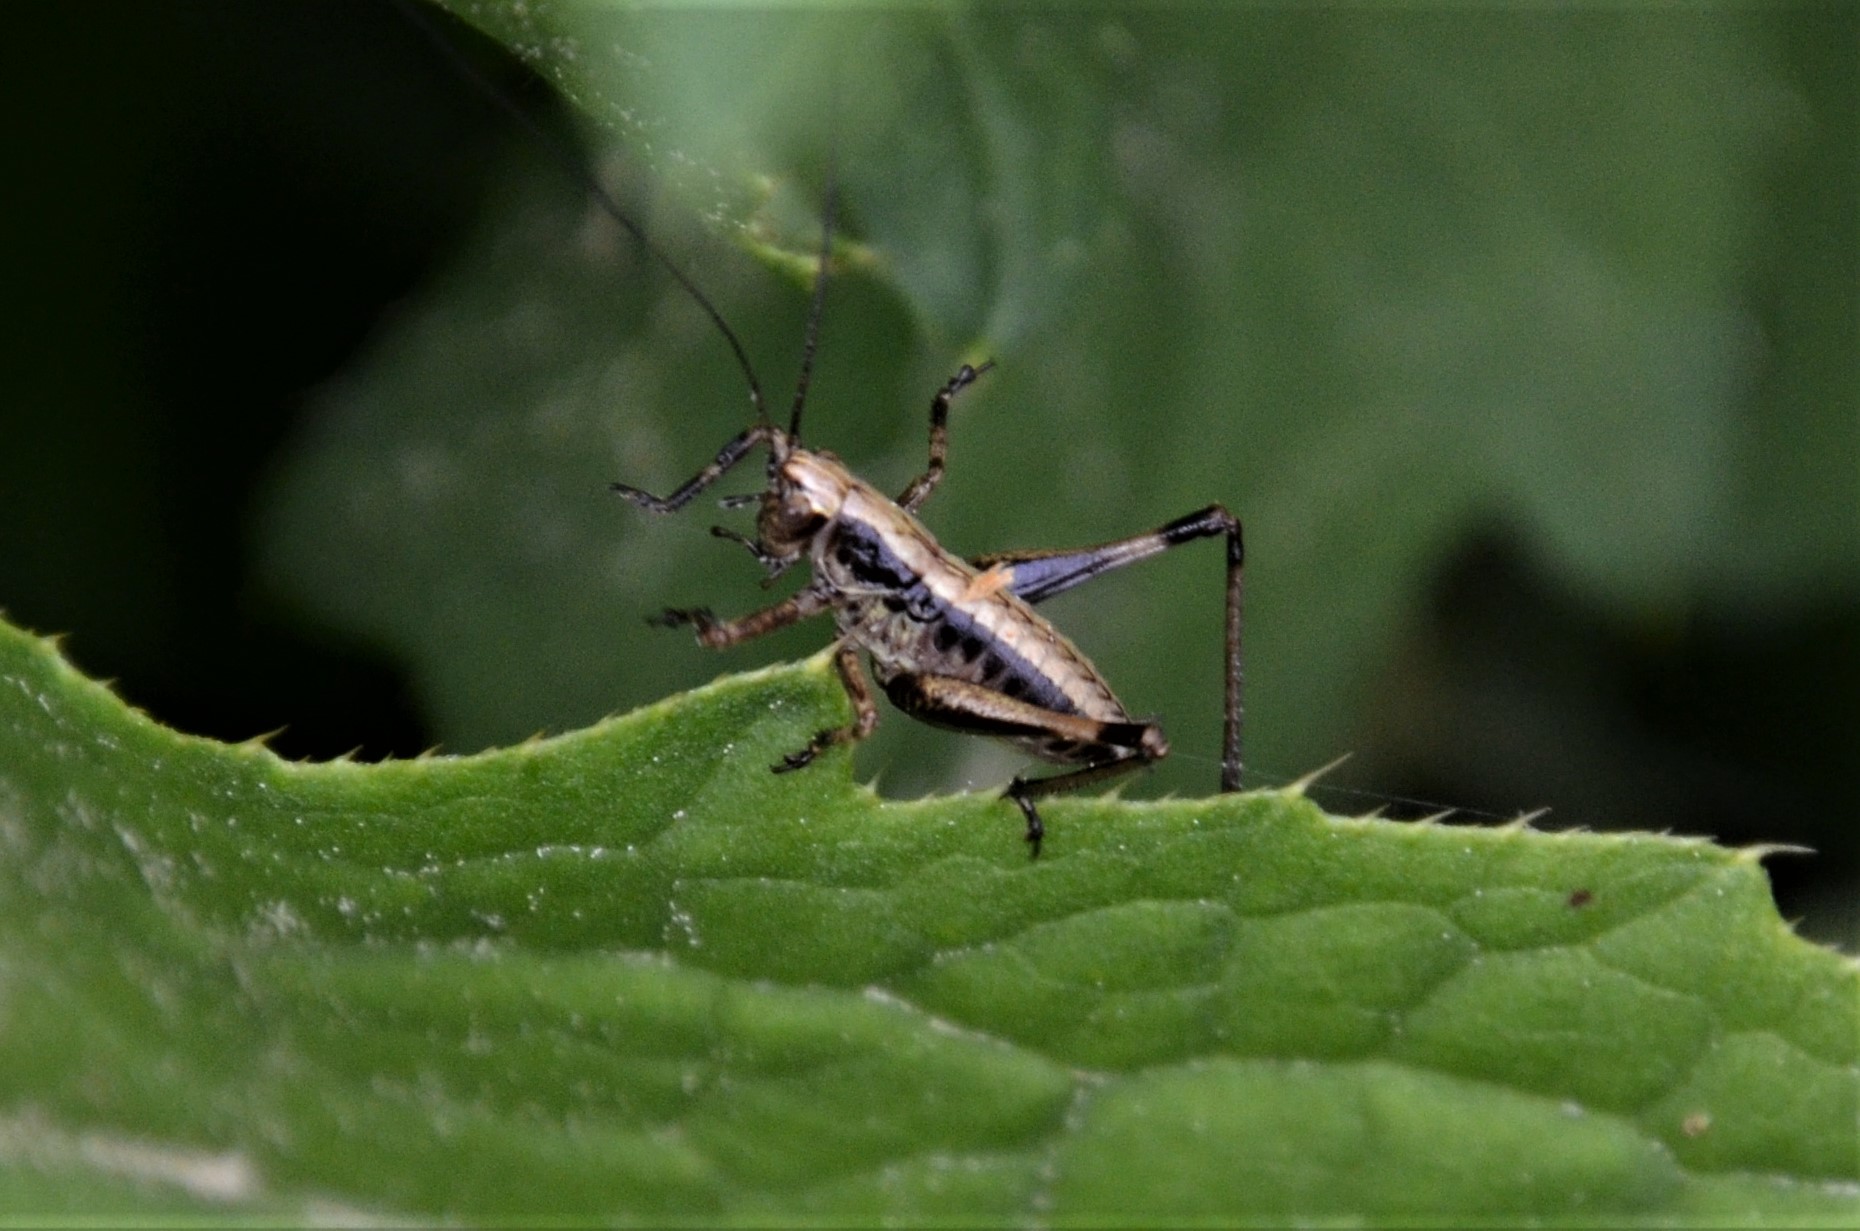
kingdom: Animalia
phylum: Arthropoda
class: Insecta
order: Orthoptera
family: Tettigoniidae
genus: Pholidoptera
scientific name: Pholidoptera griseoaptera
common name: Dark bush-cricket
